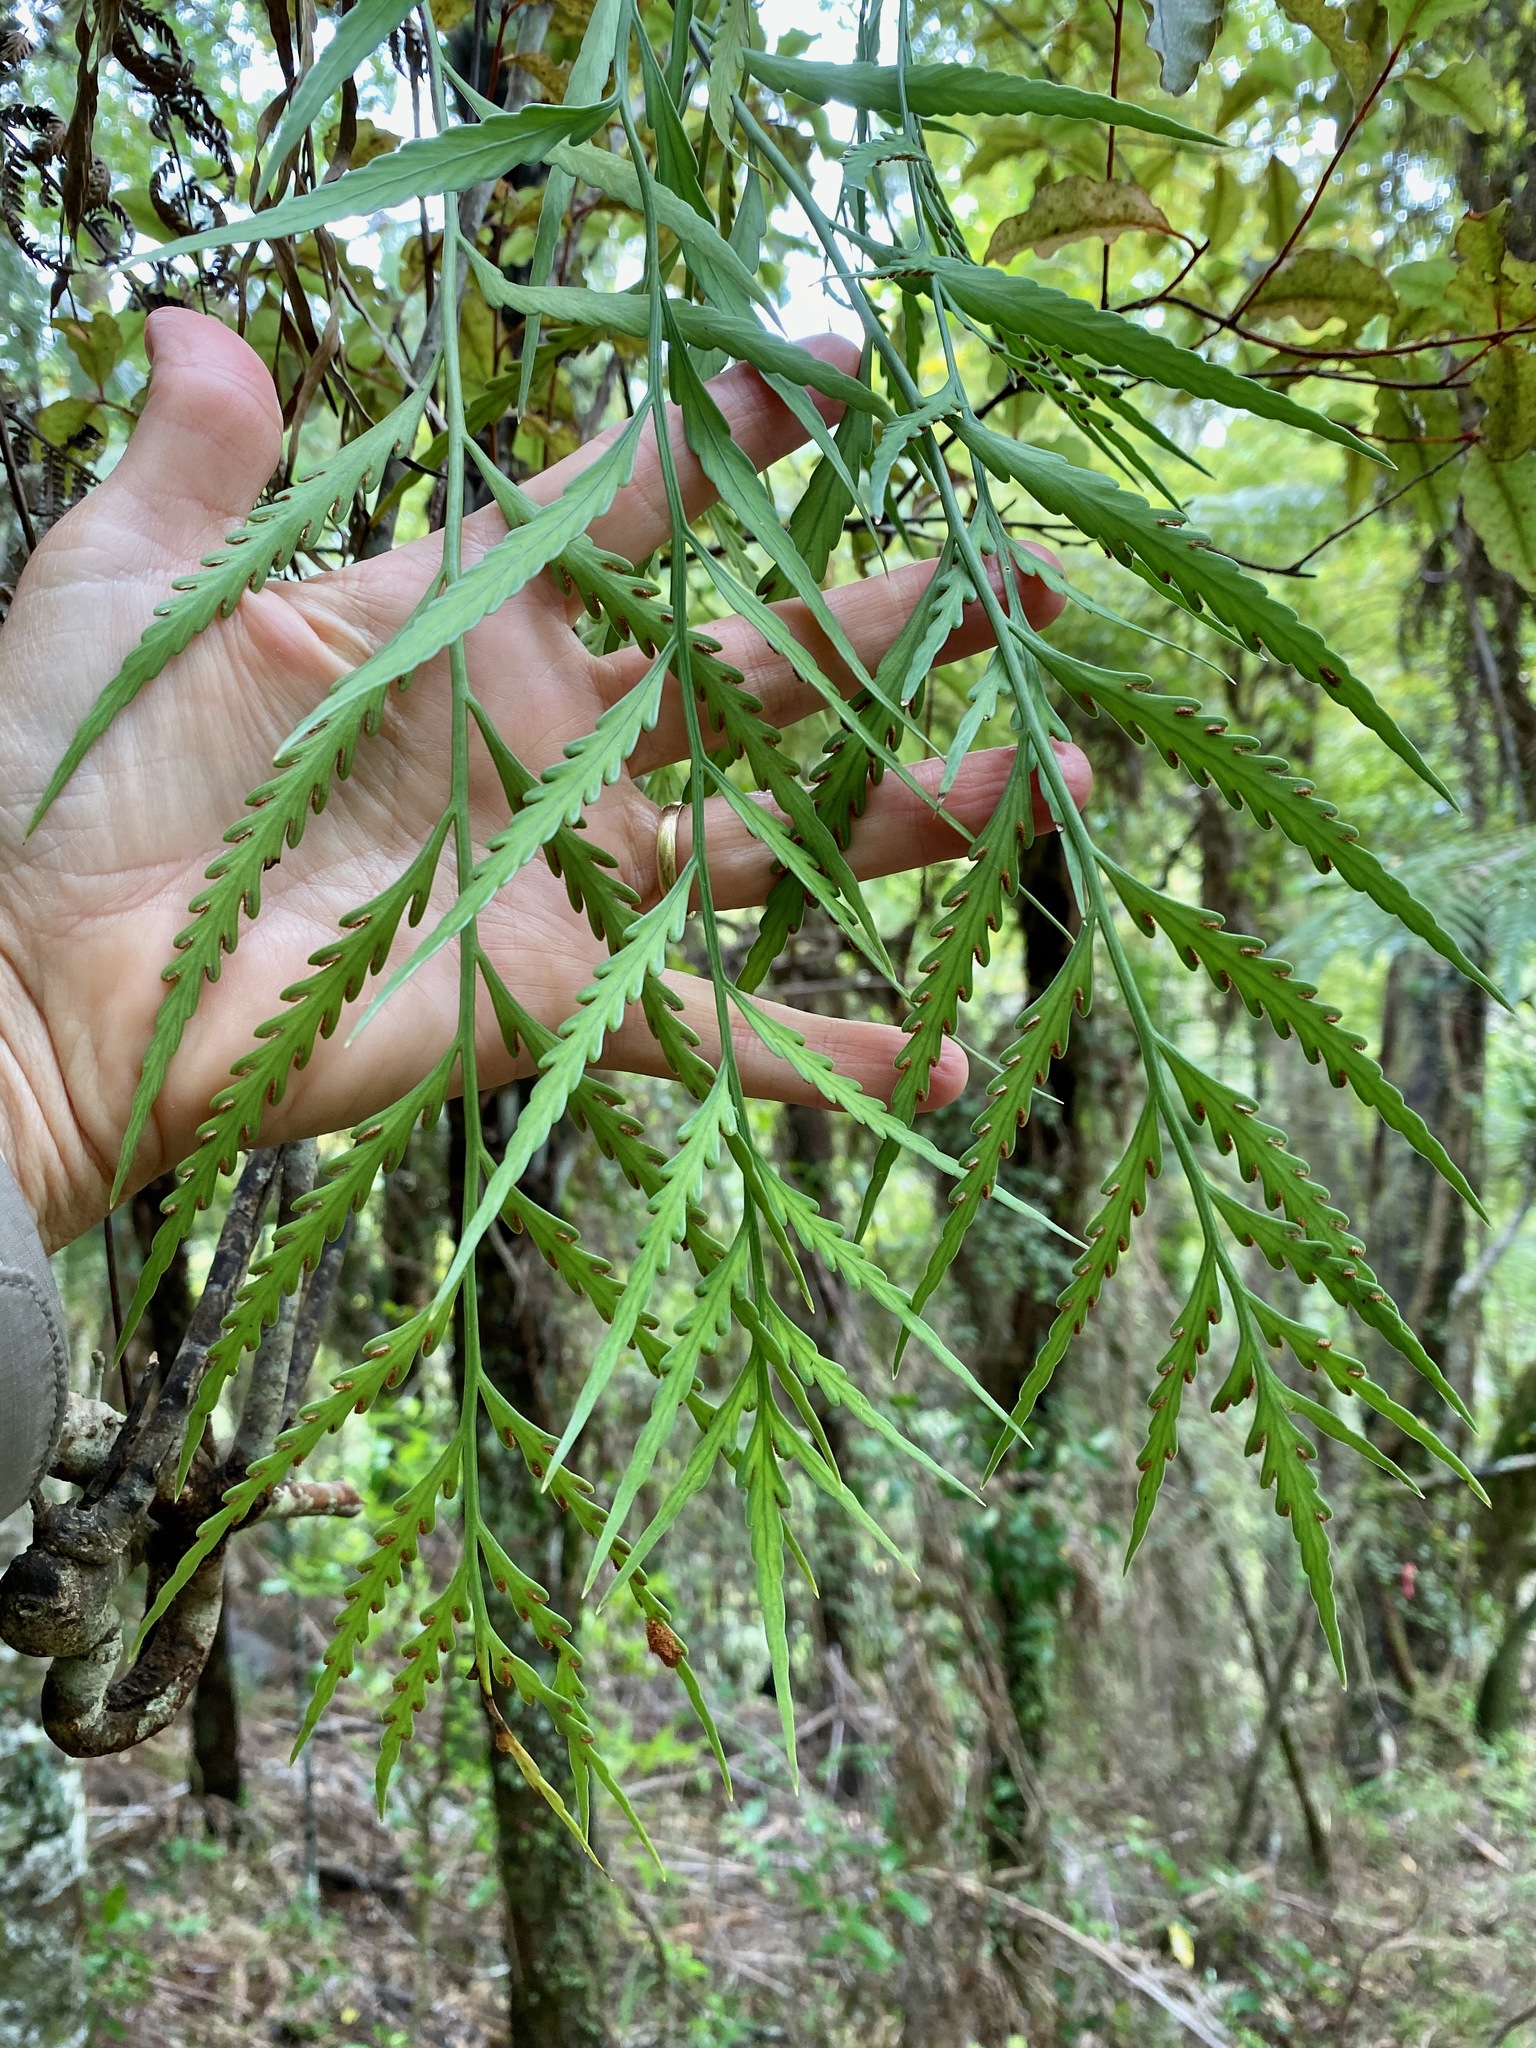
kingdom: Plantae
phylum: Tracheophyta
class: Polypodiopsida
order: Polypodiales
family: Aspleniaceae
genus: Asplenium
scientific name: Asplenium flaccidum
